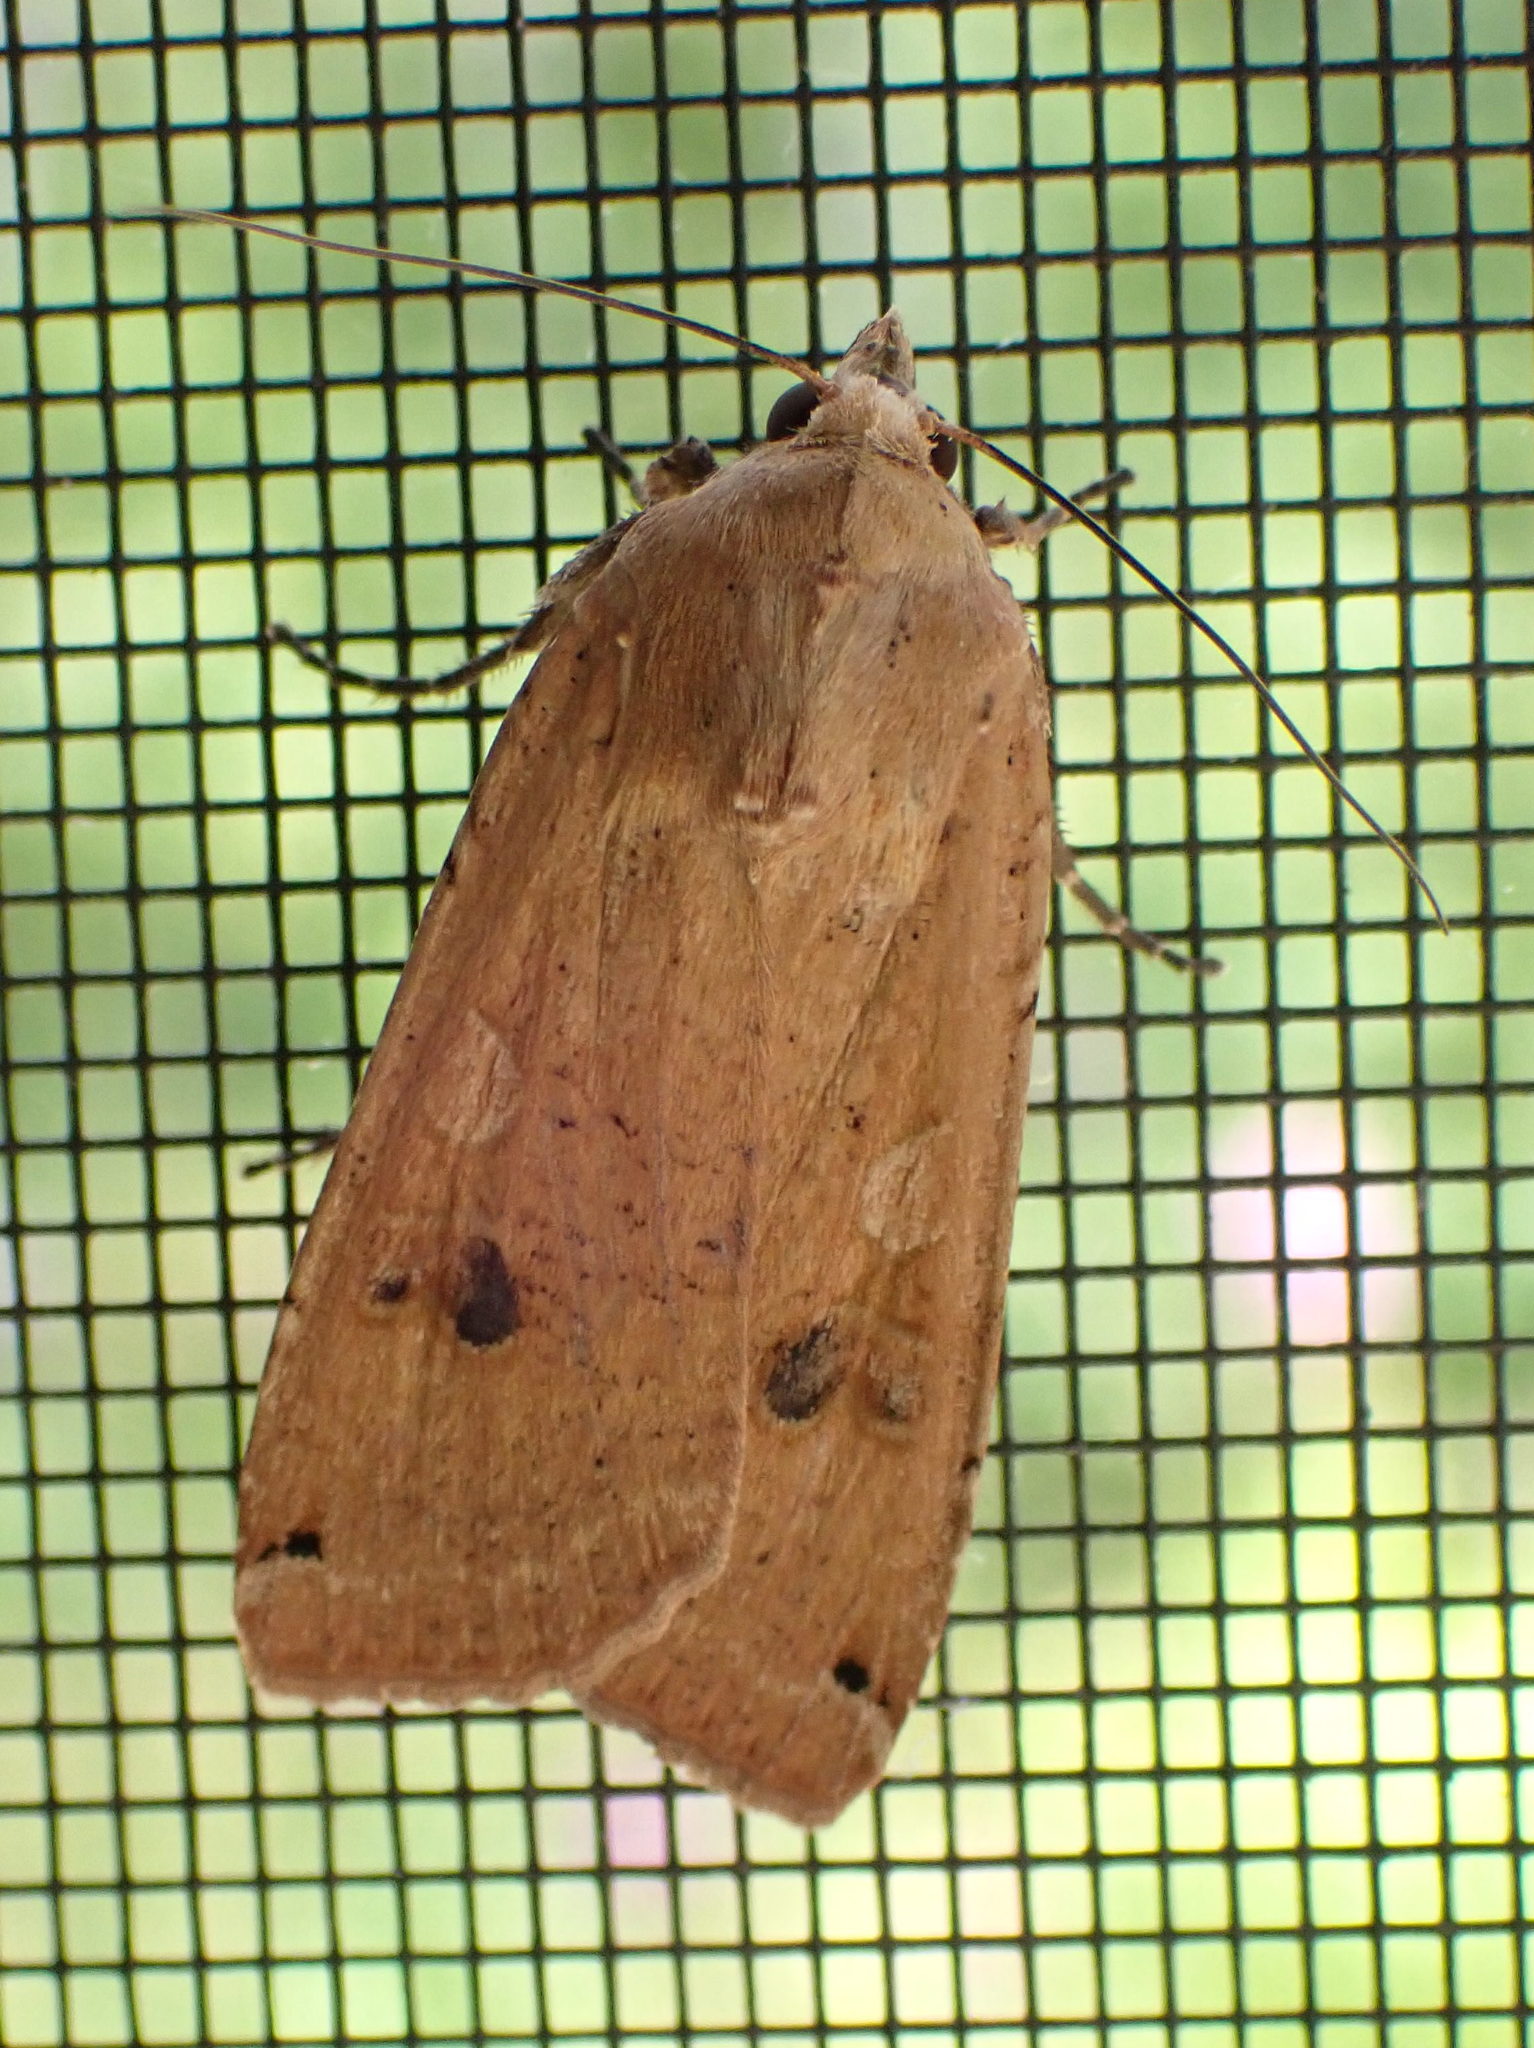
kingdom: Animalia
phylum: Arthropoda
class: Insecta
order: Lepidoptera
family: Noctuidae
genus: Noctua
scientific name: Noctua pronuba
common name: Large yellow underwing
